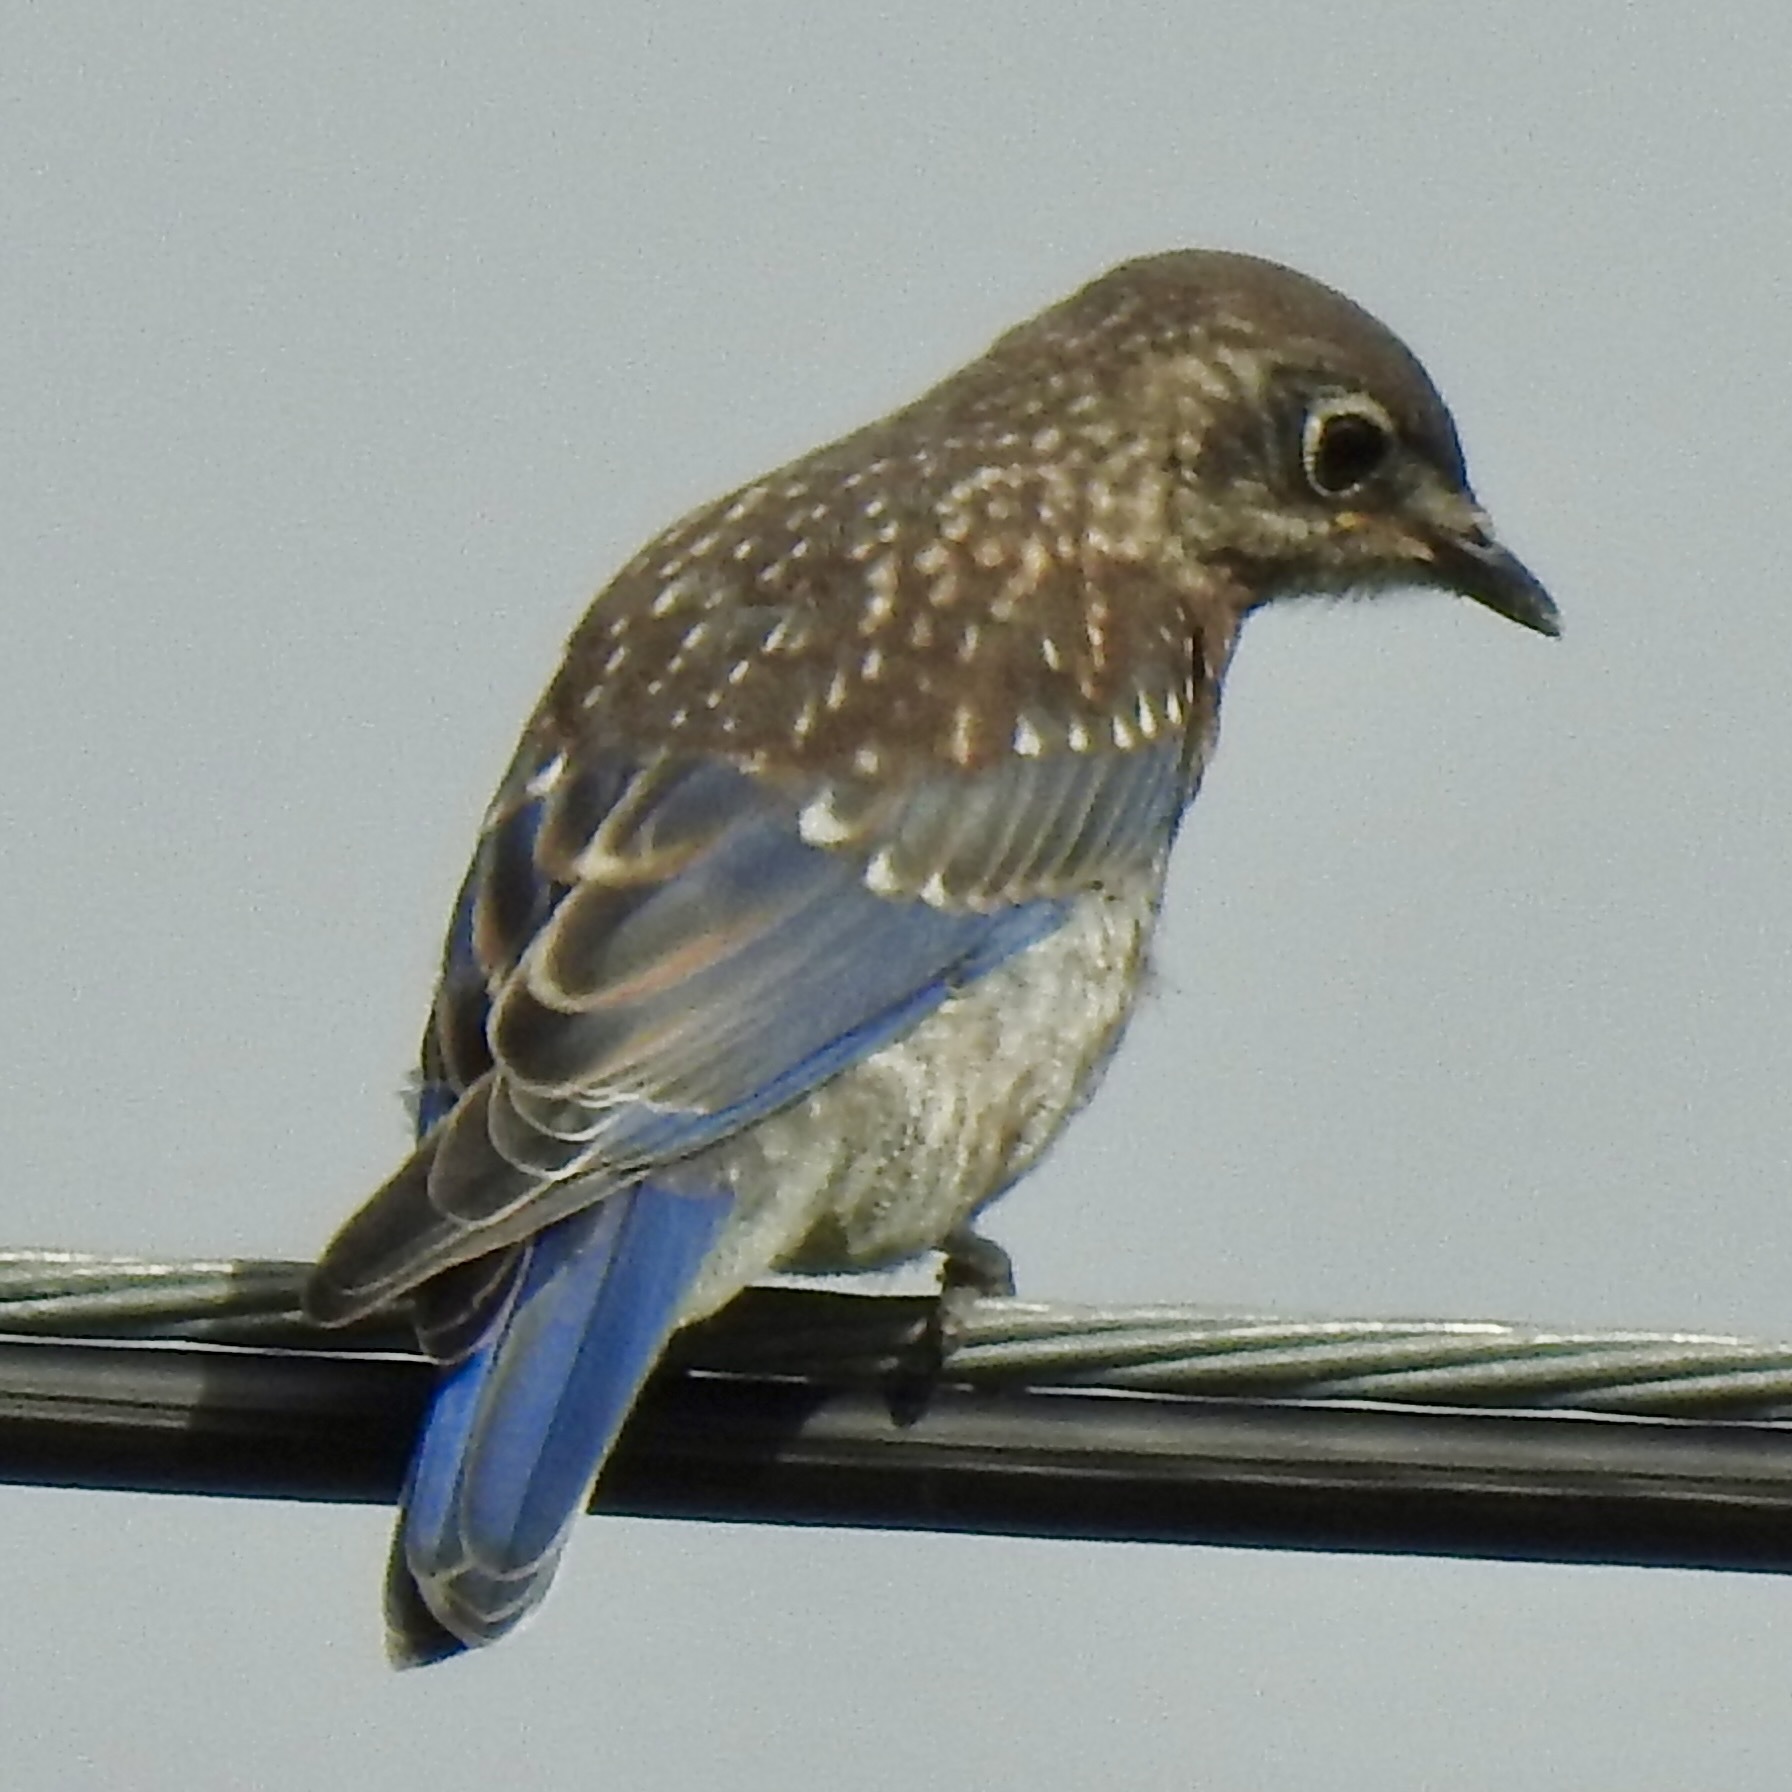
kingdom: Animalia
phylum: Chordata
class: Aves
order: Passeriformes
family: Turdidae
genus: Sialia
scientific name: Sialia sialis
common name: Eastern bluebird
